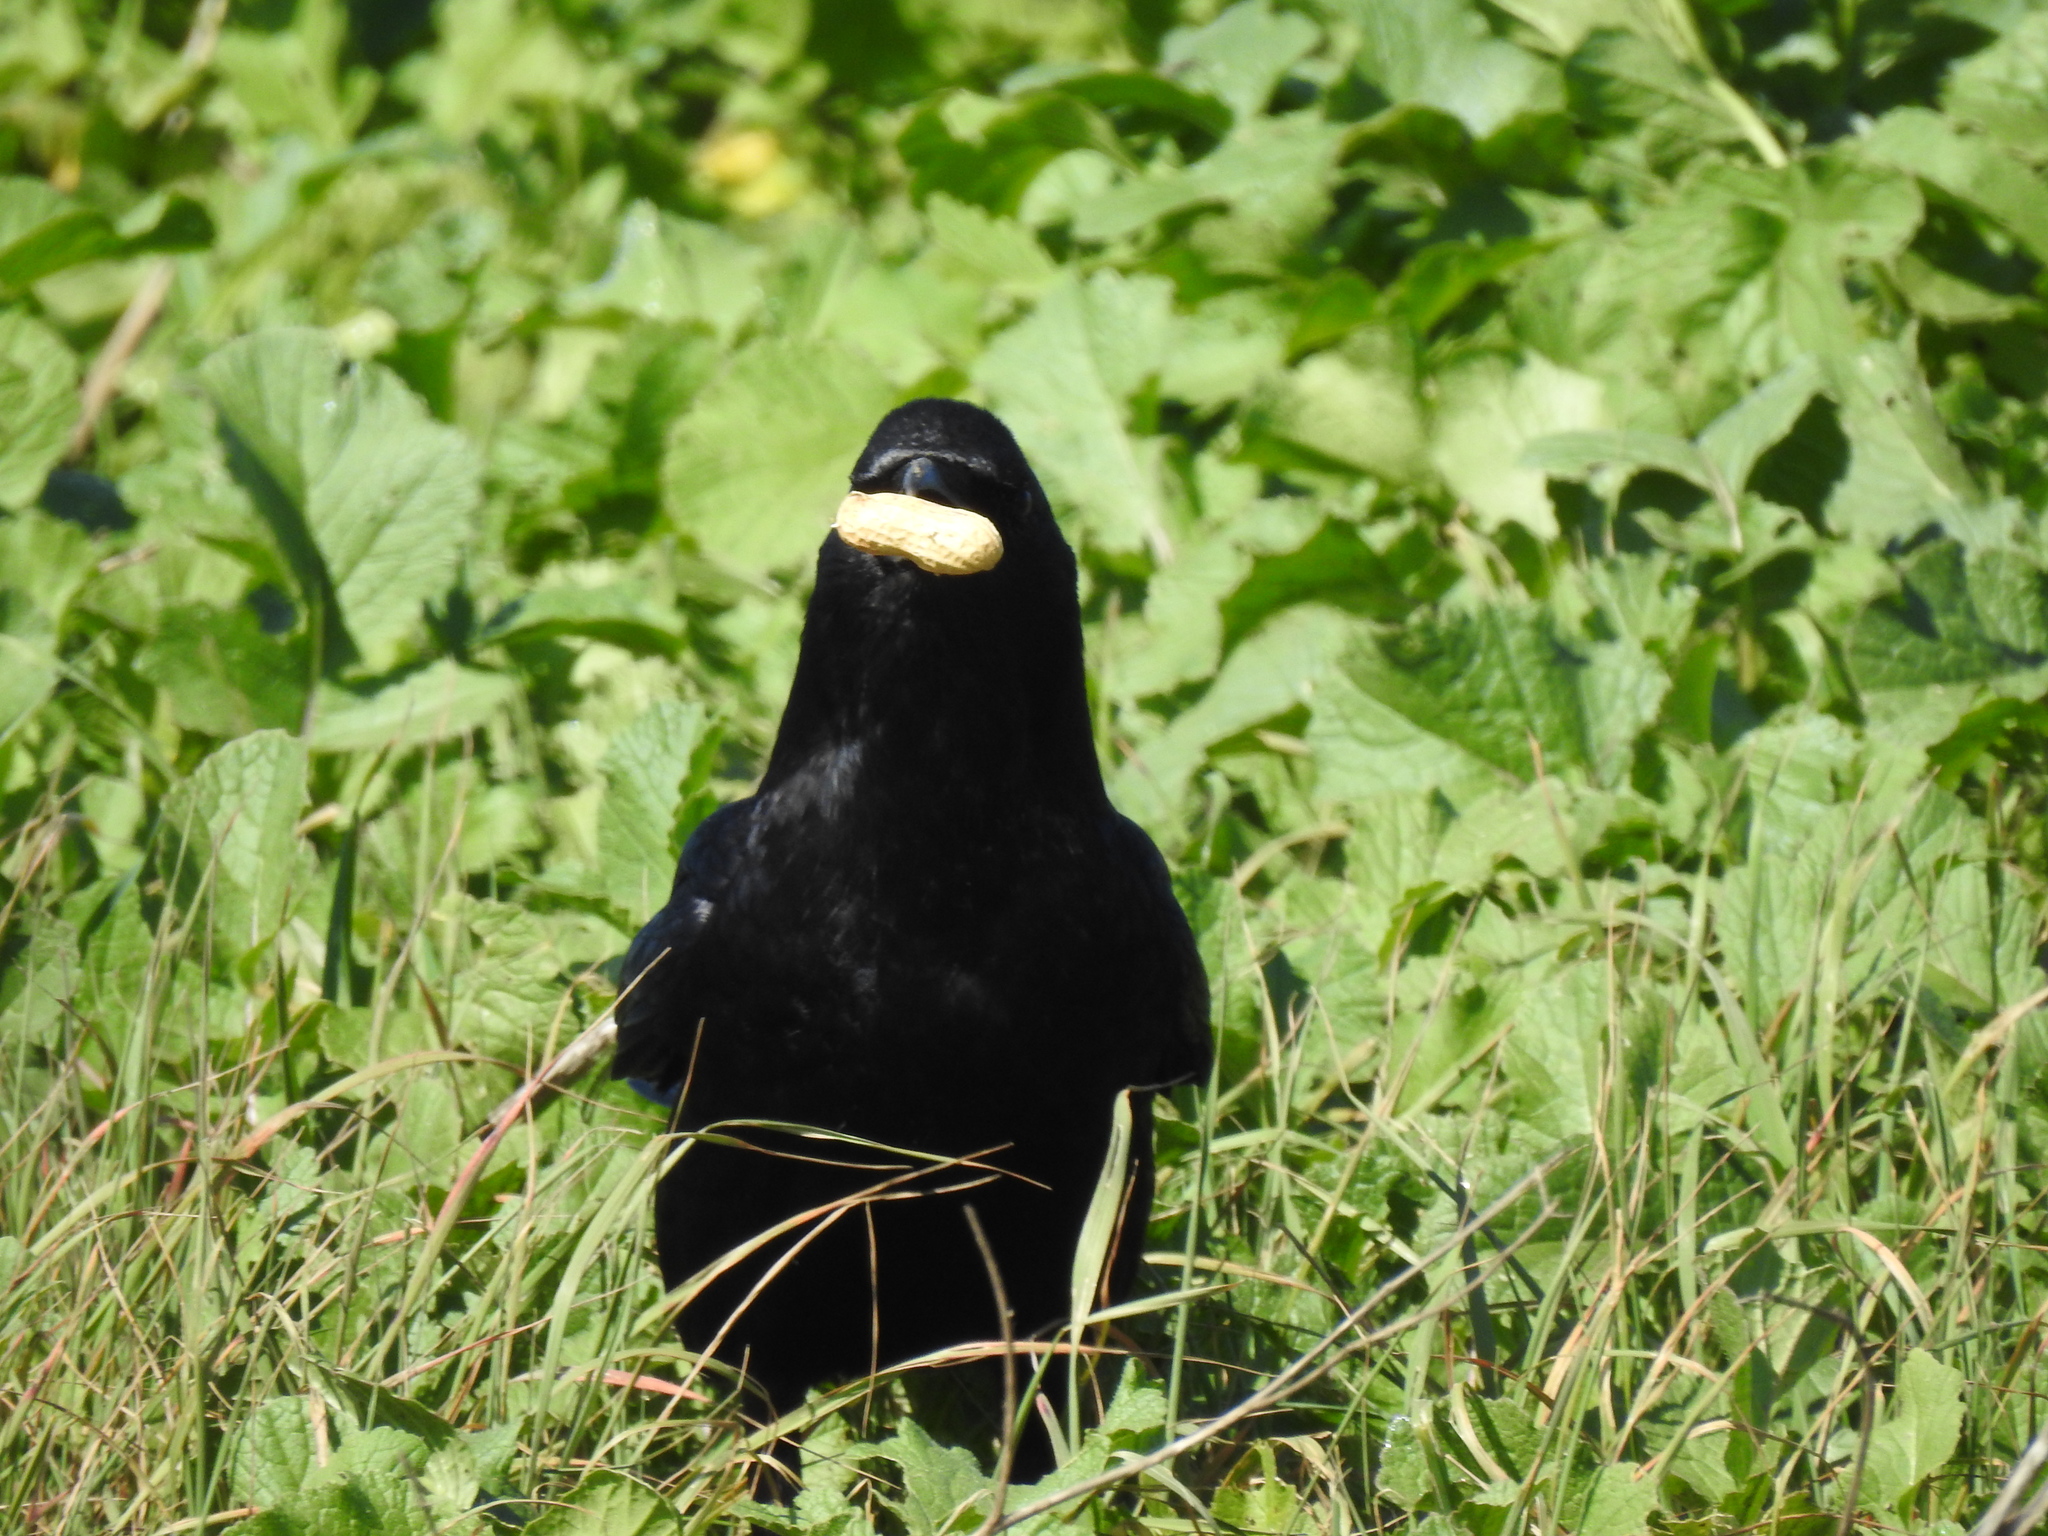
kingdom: Animalia
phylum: Chordata
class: Aves
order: Passeriformes
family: Corvidae
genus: Corvus
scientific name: Corvus brachyrhynchos
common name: American crow
